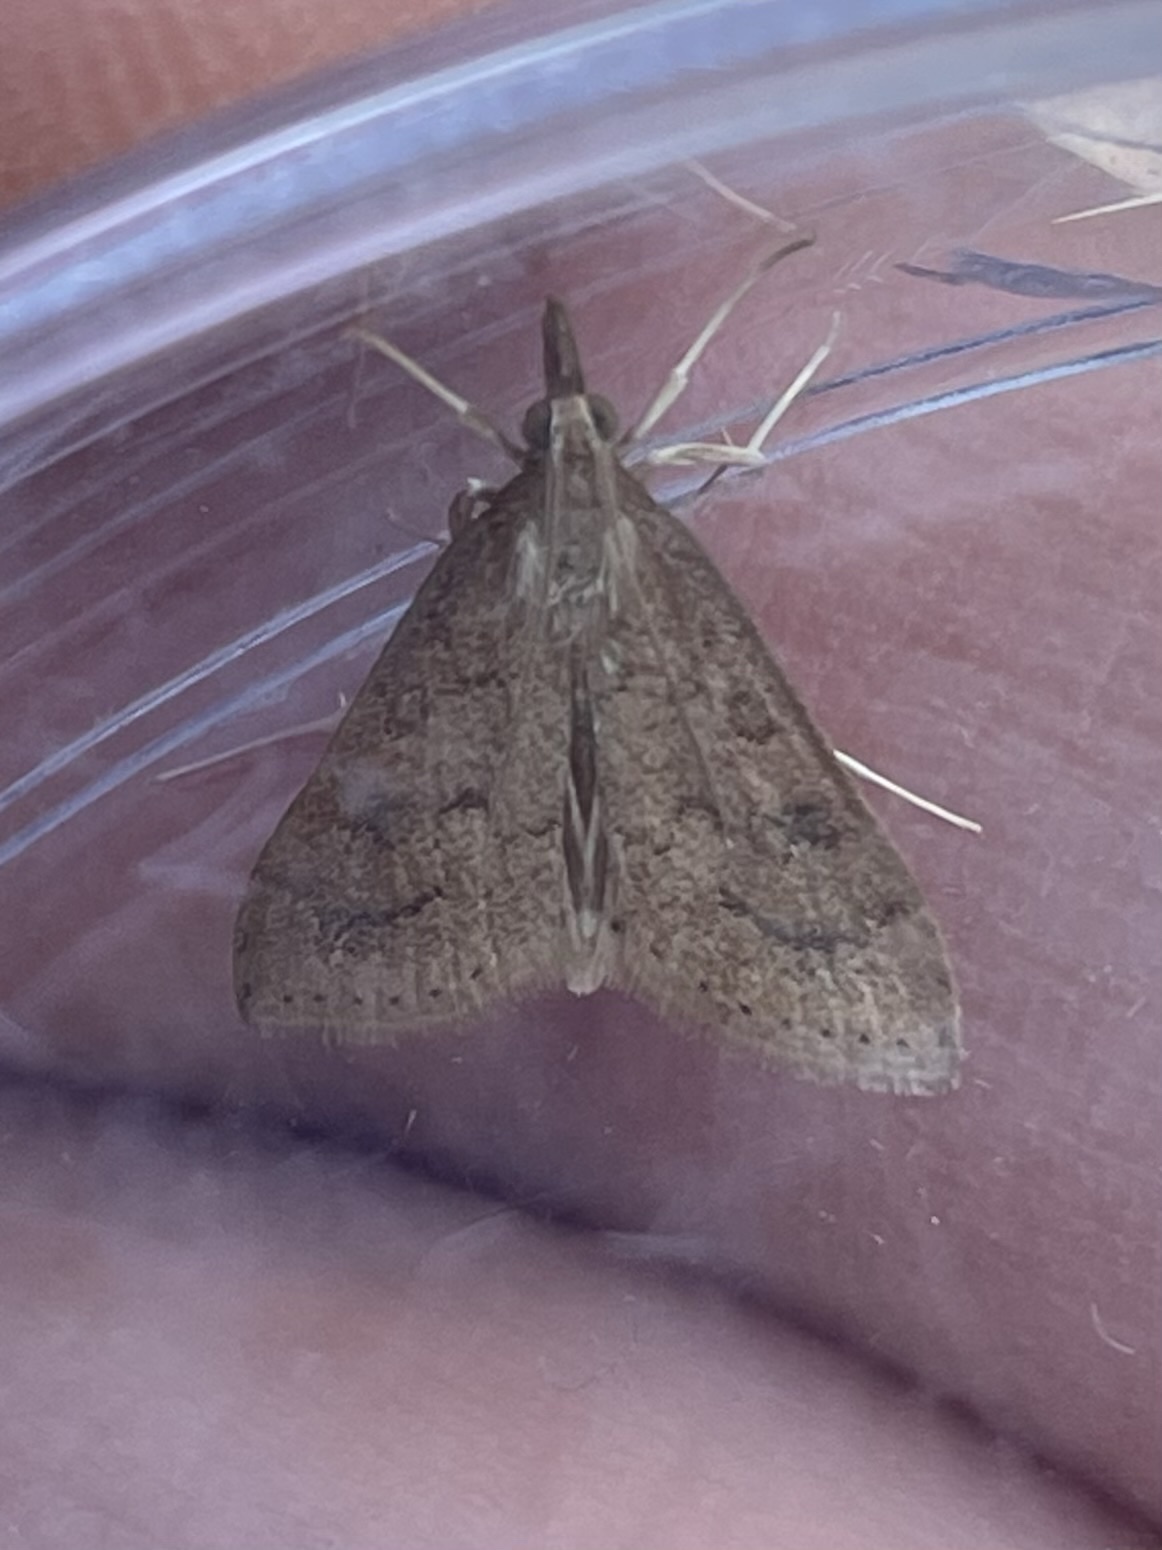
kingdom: Animalia
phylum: Arthropoda
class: Insecta
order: Lepidoptera
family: Crambidae
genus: Udea
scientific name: Udea rubigalis
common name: Celery leaftier moth
